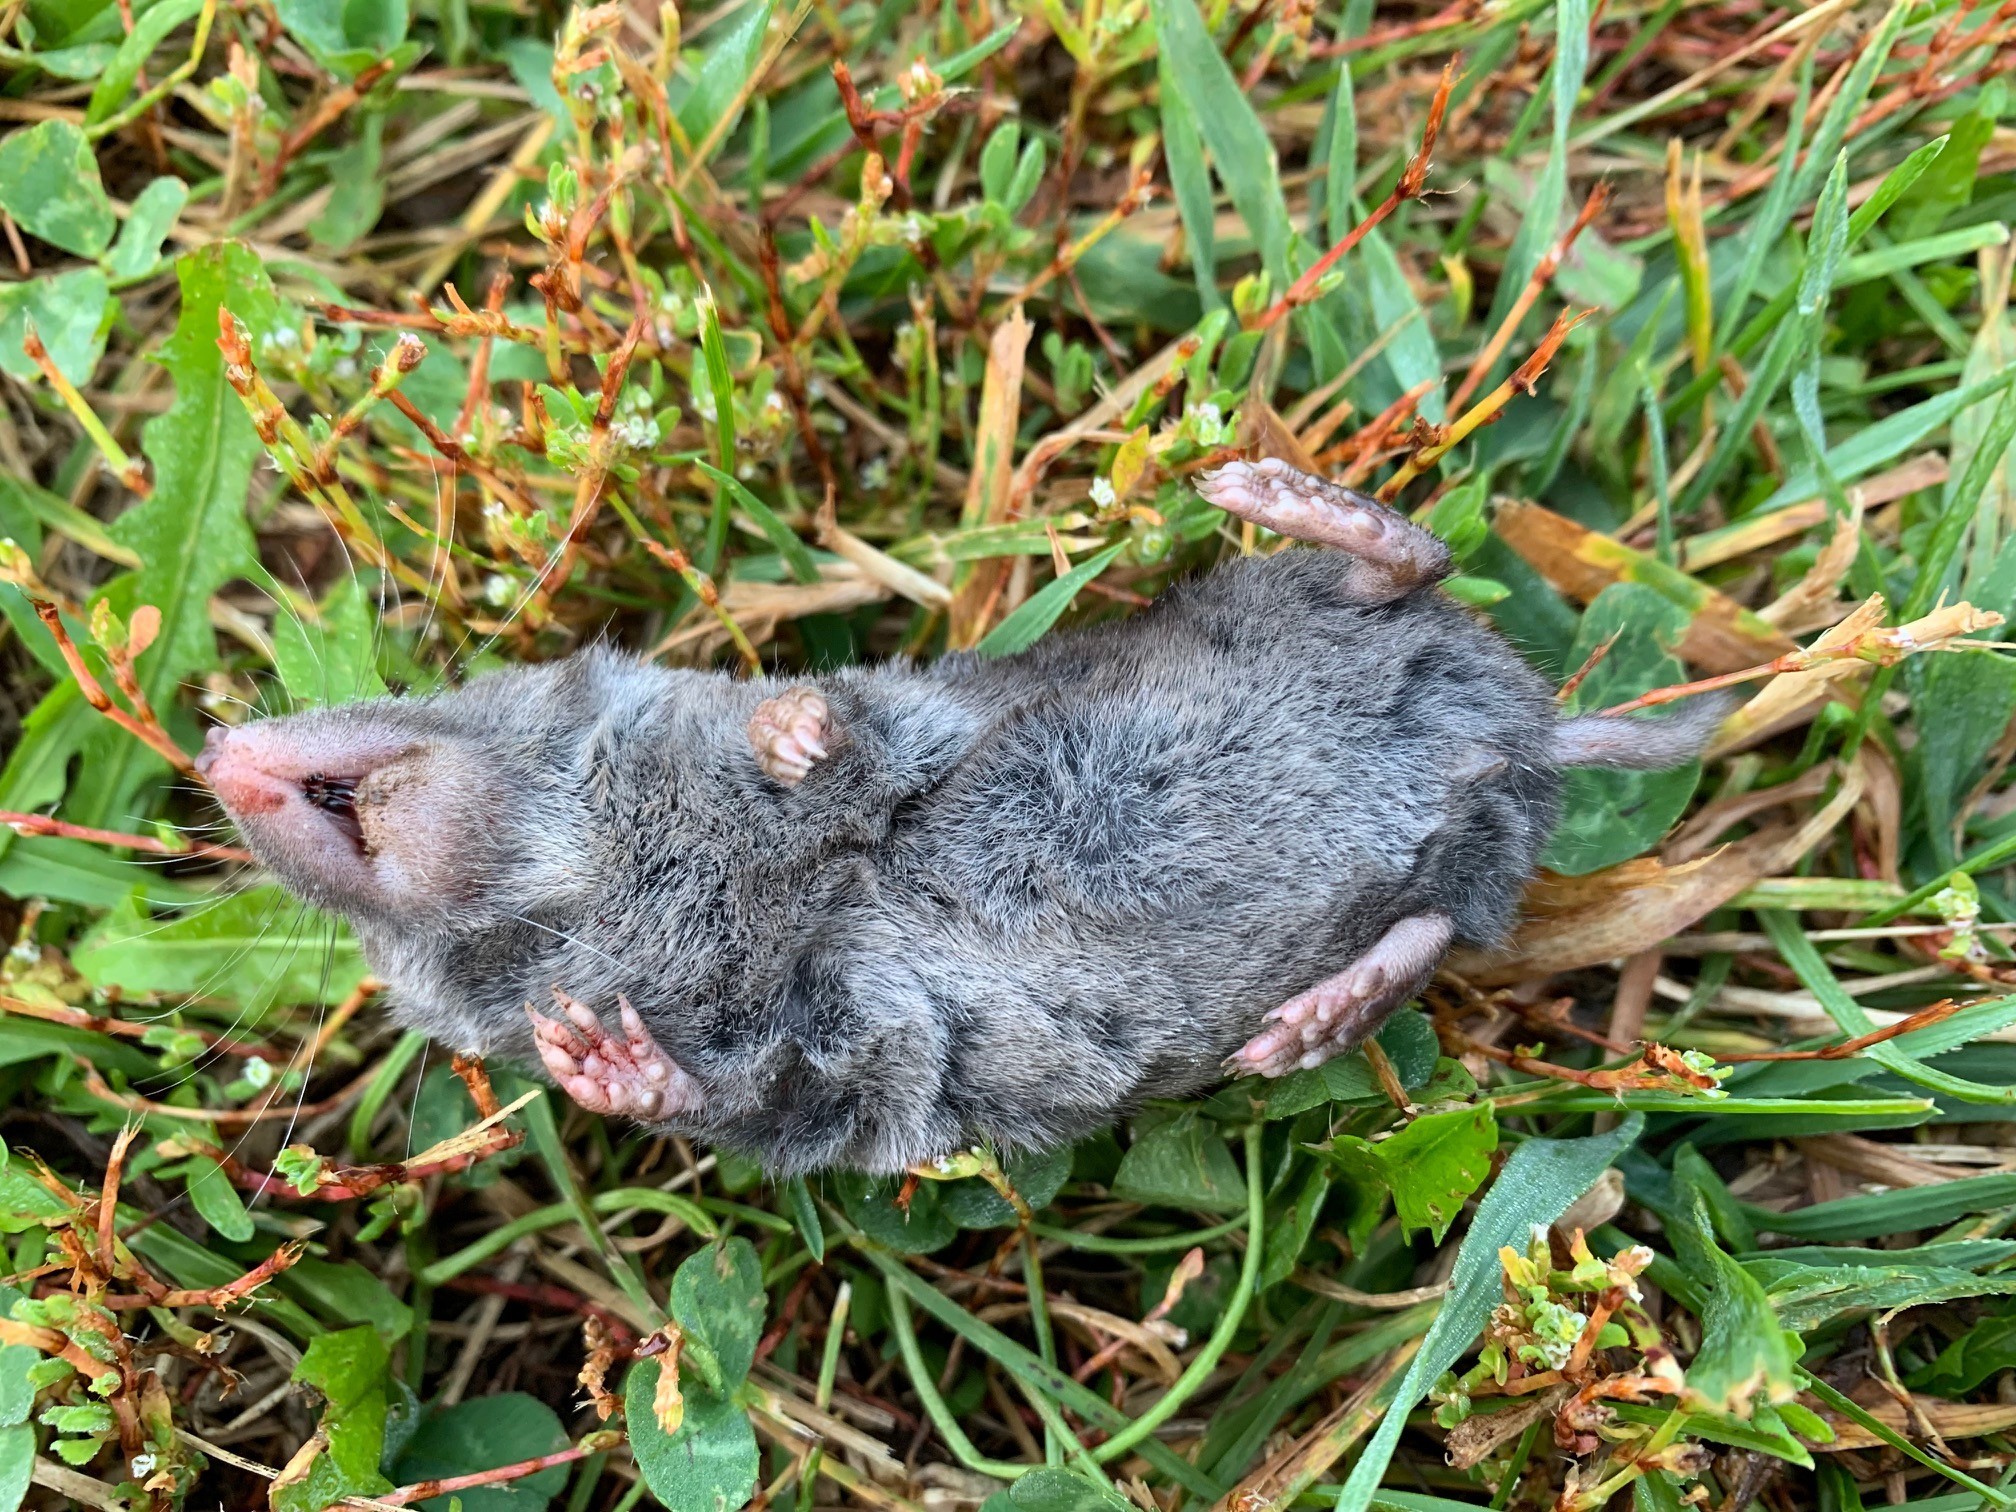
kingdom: Animalia
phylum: Chordata
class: Mammalia
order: Soricomorpha
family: Soricidae
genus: Blarina
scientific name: Blarina brevicauda
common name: Northern short-tailed shrew
